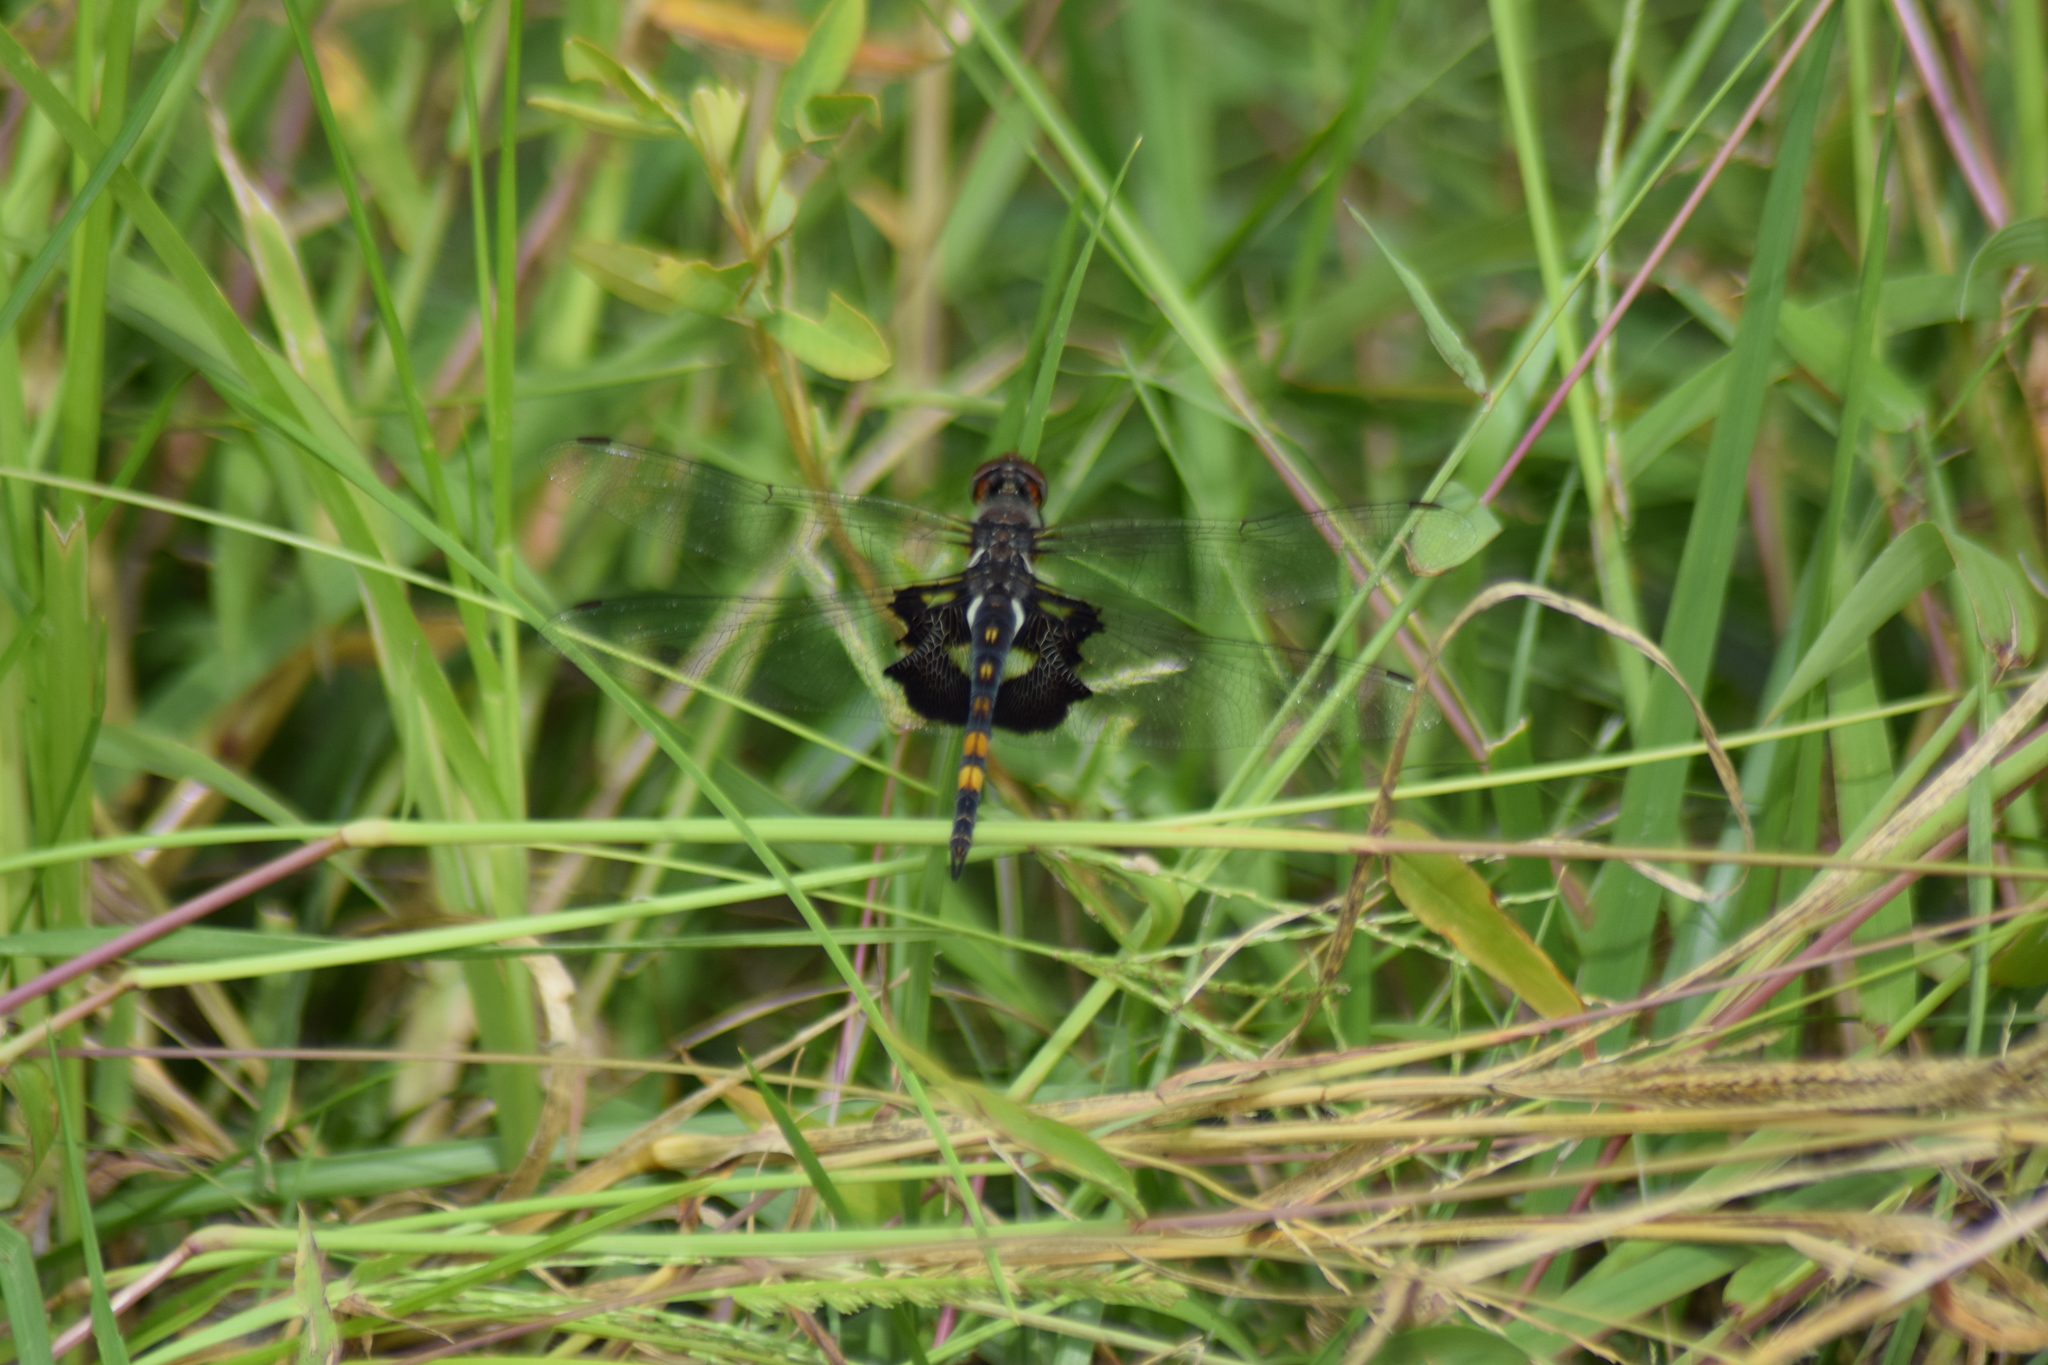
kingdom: Animalia
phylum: Arthropoda
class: Insecta
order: Odonata
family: Libellulidae
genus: Tramea
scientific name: Tramea lacerata
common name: Black saddlebags
